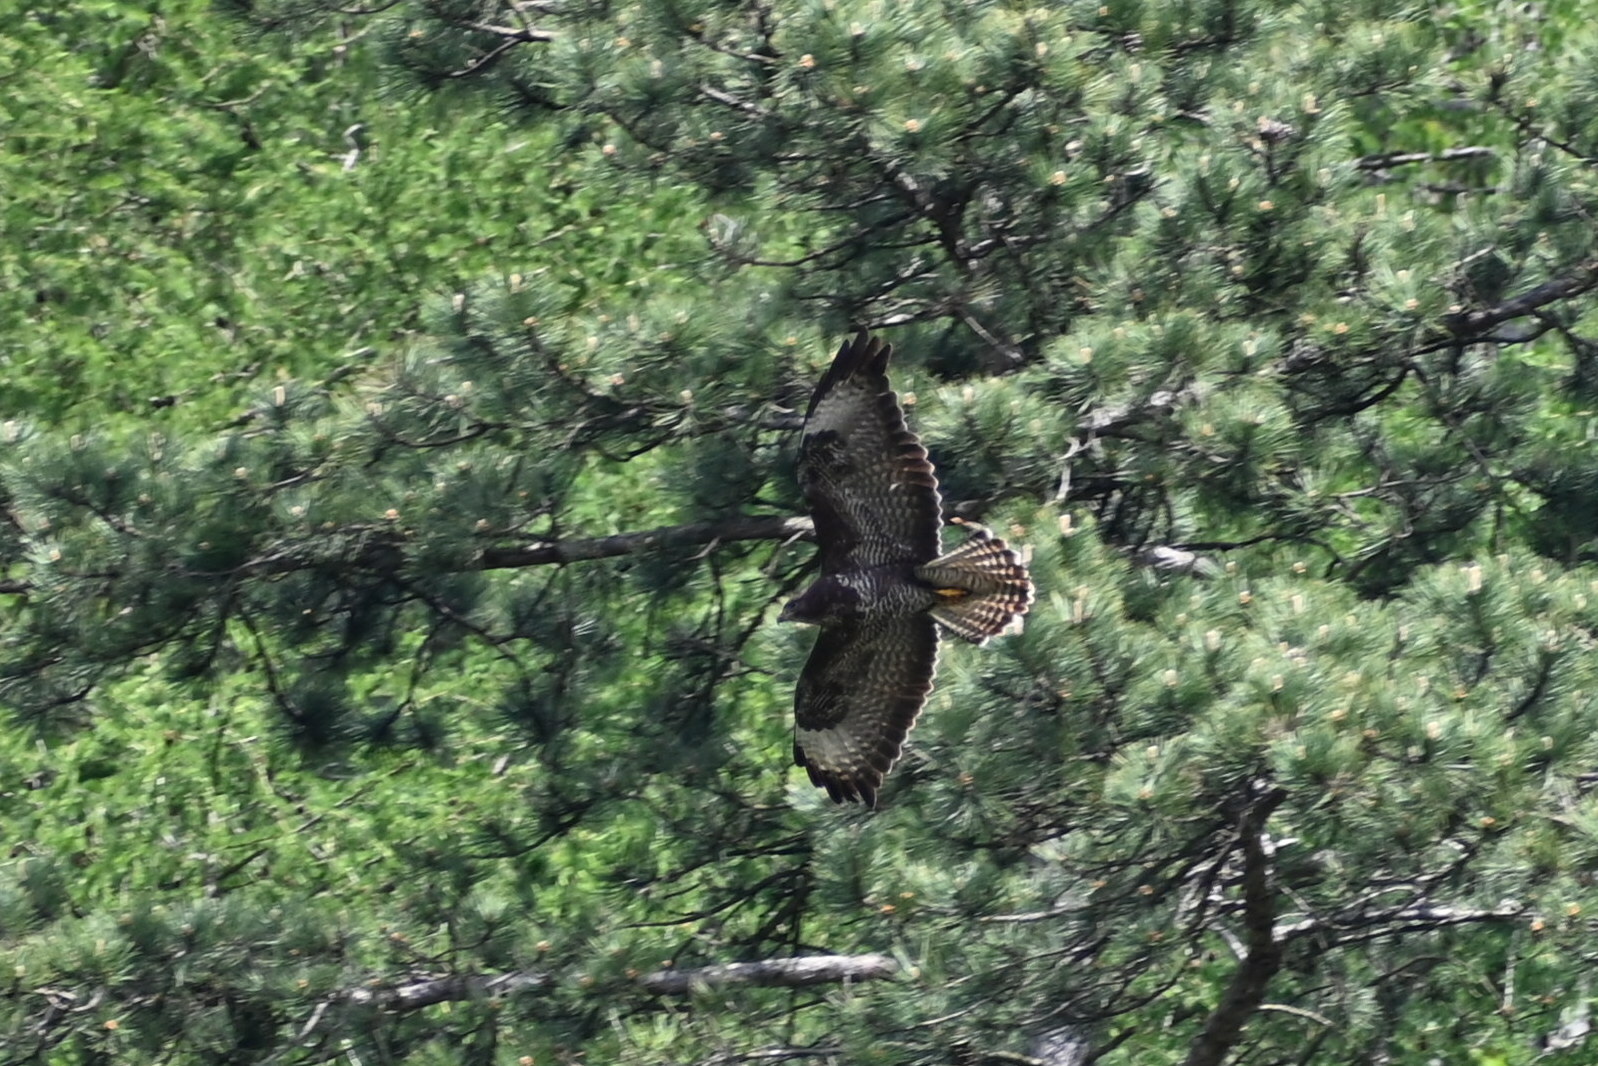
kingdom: Animalia
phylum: Chordata
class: Aves
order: Accipitriformes
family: Accipitridae
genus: Buteo
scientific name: Buteo buteo
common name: Common buzzard
